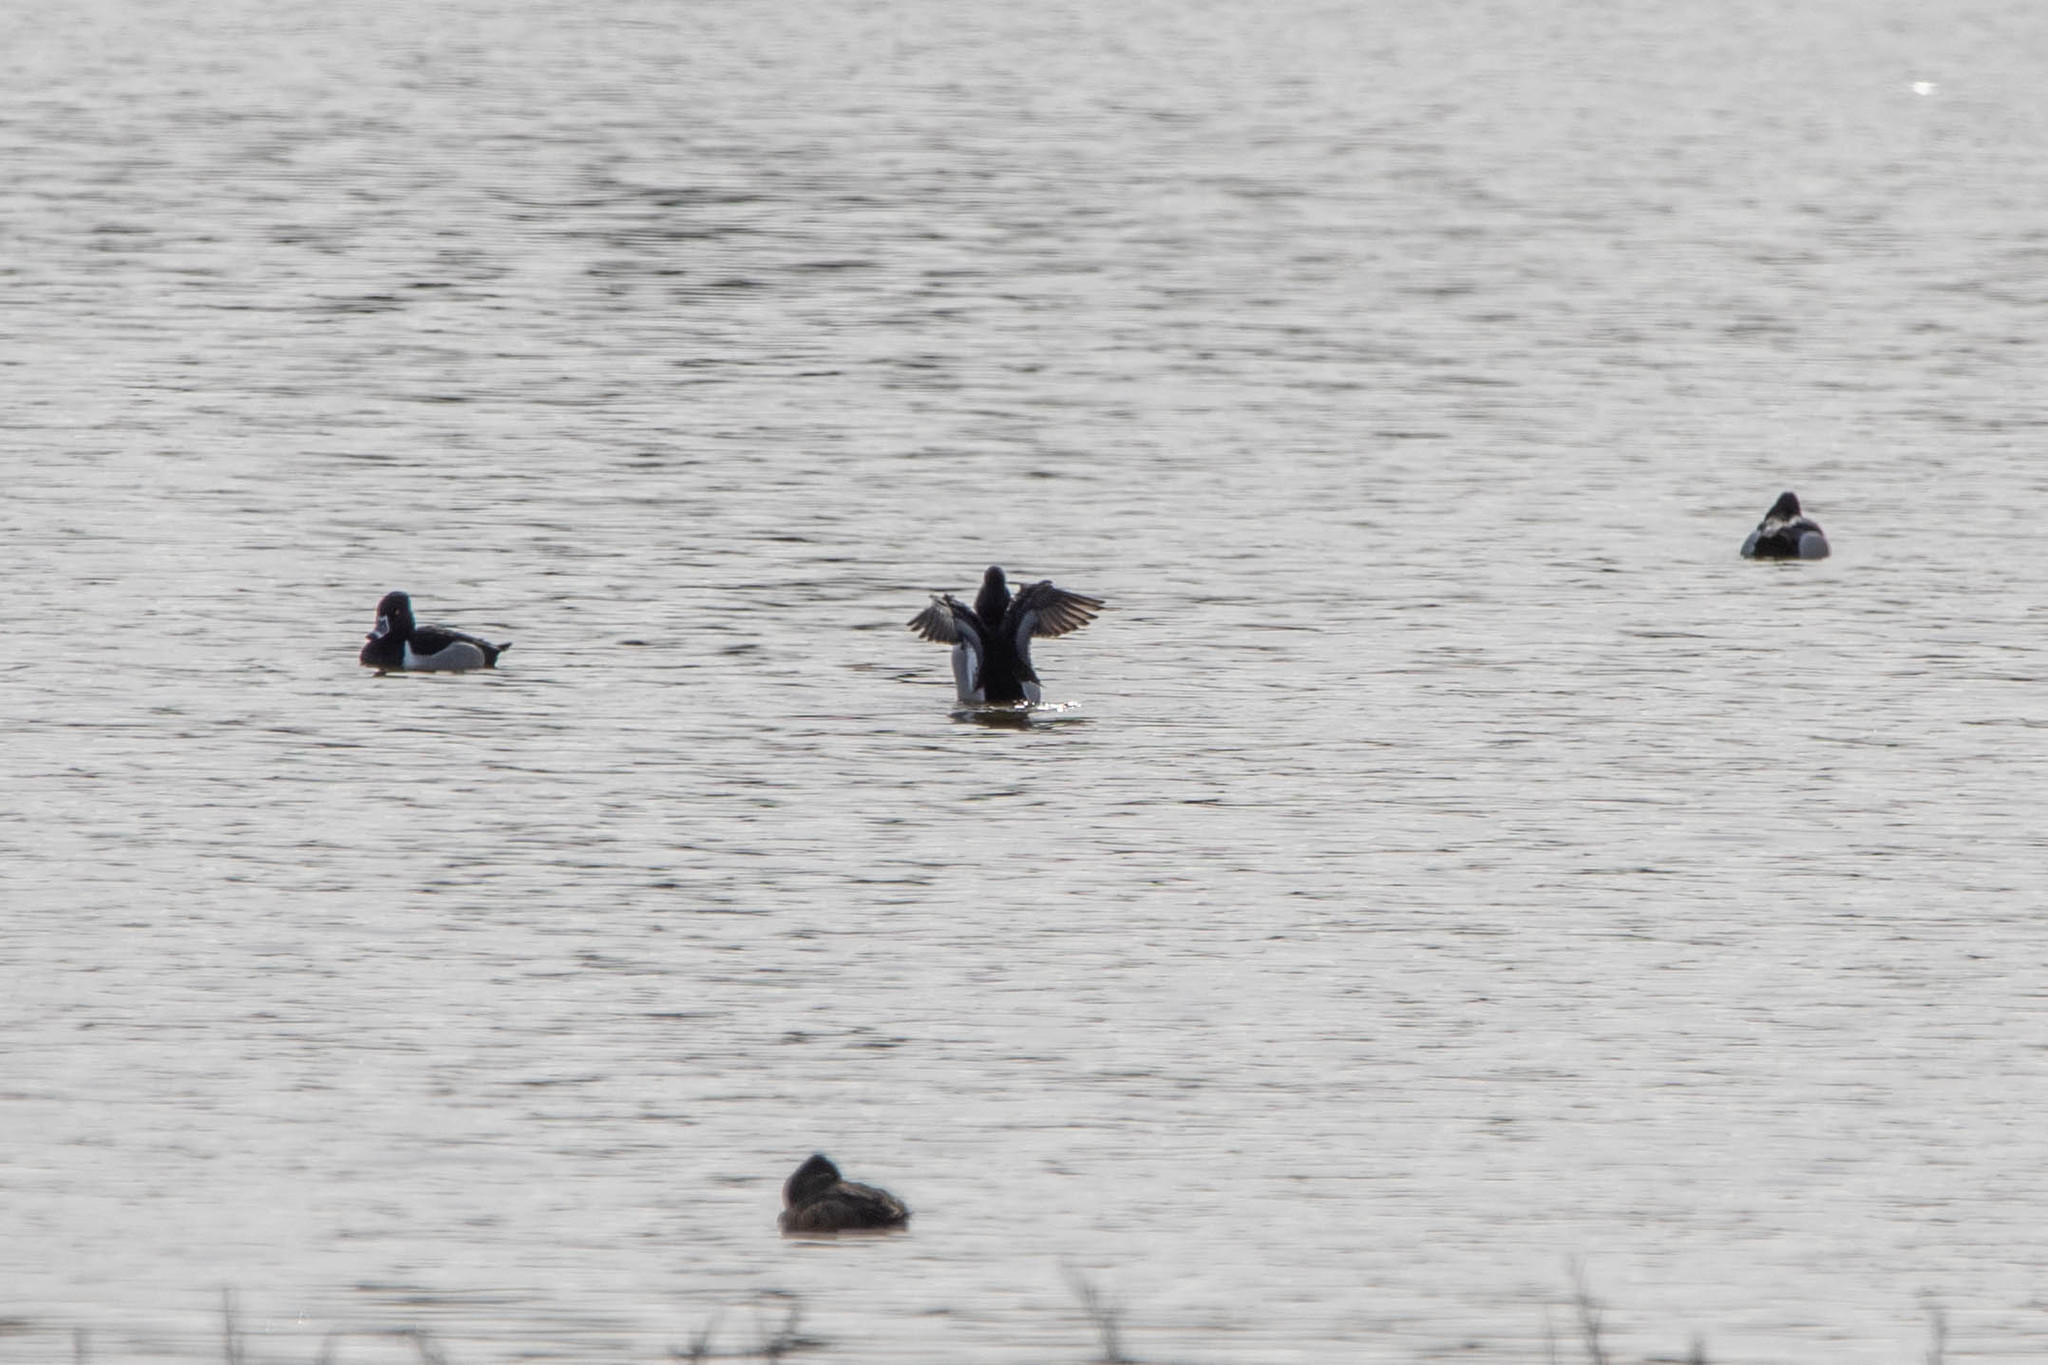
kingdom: Animalia
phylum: Chordata
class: Aves
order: Anseriformes
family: Anatidae
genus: Aythya
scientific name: Aythya collaris
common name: Ring-necked duck
